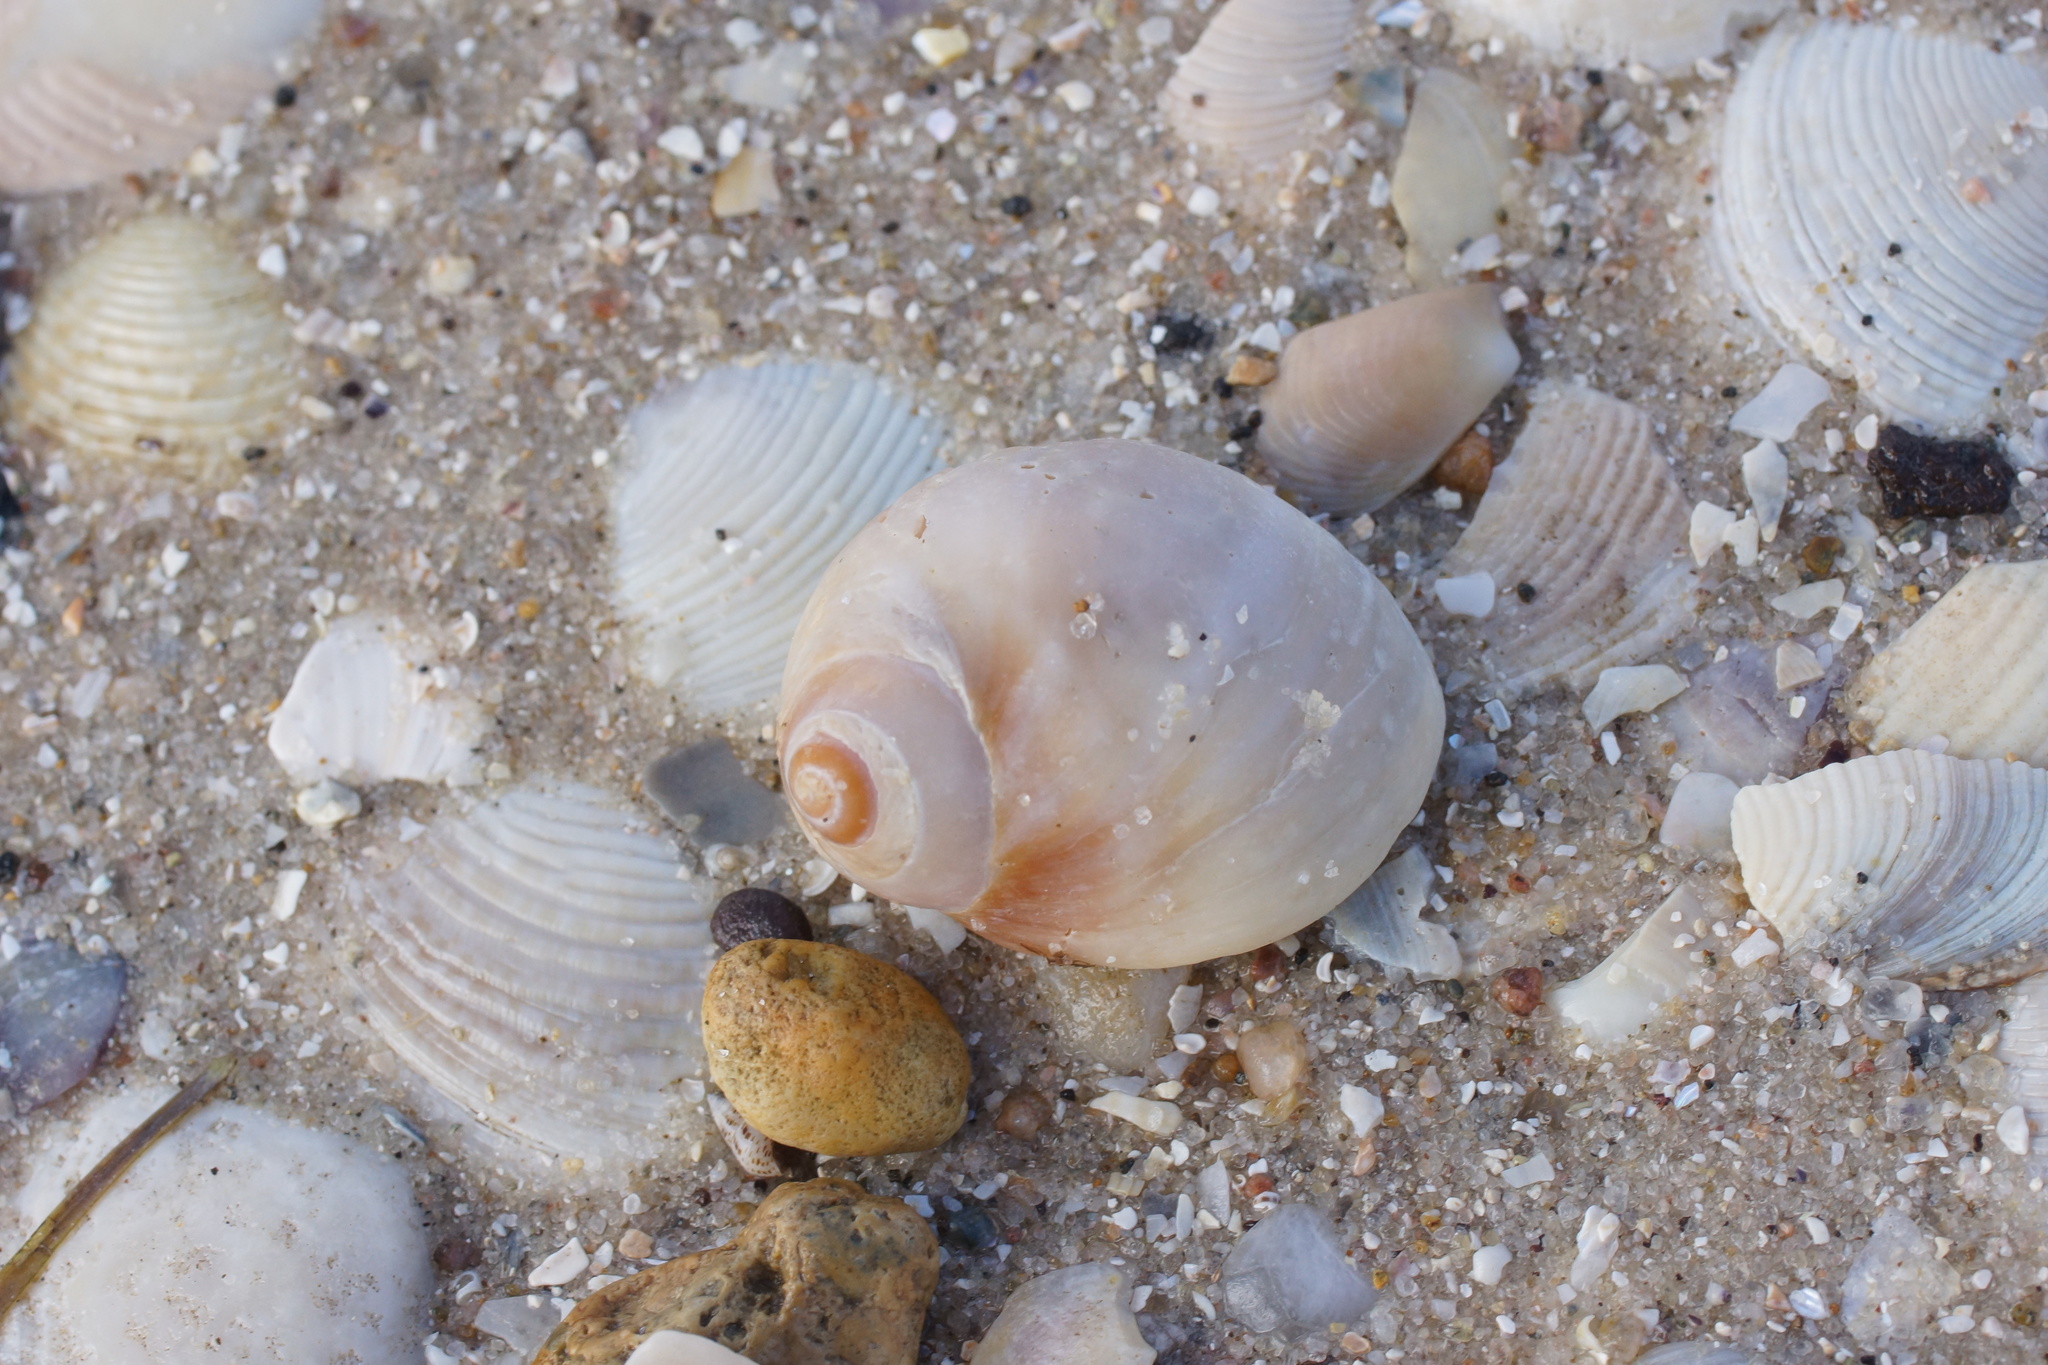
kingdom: Animalia
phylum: Mollusca
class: Gastropoda
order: Littorinimorpha
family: Naticidae
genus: Conuber
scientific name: Conuber conicum
